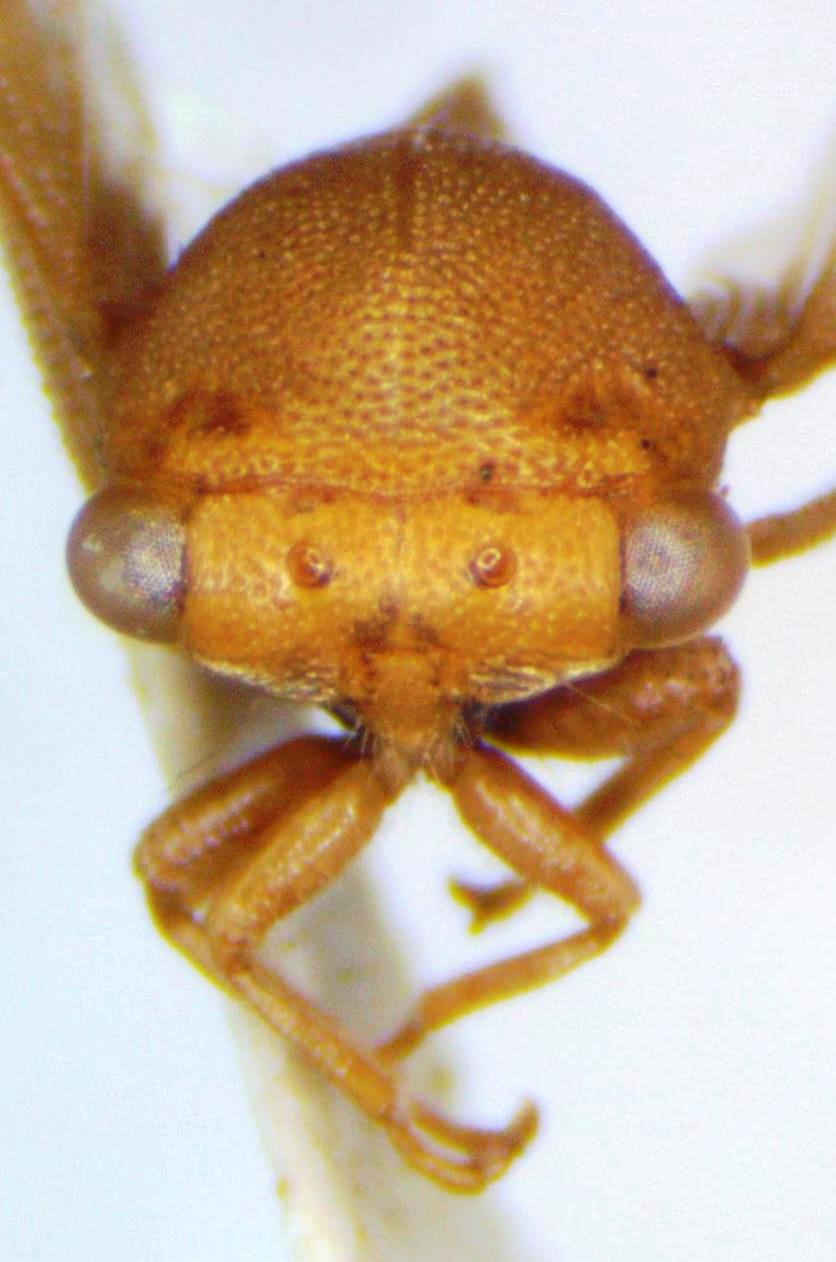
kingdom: Animalia
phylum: Arthropoda
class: Insecta
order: Hemiptera
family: Membracidae
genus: Procyrta
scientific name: Procyrta pectoralis
